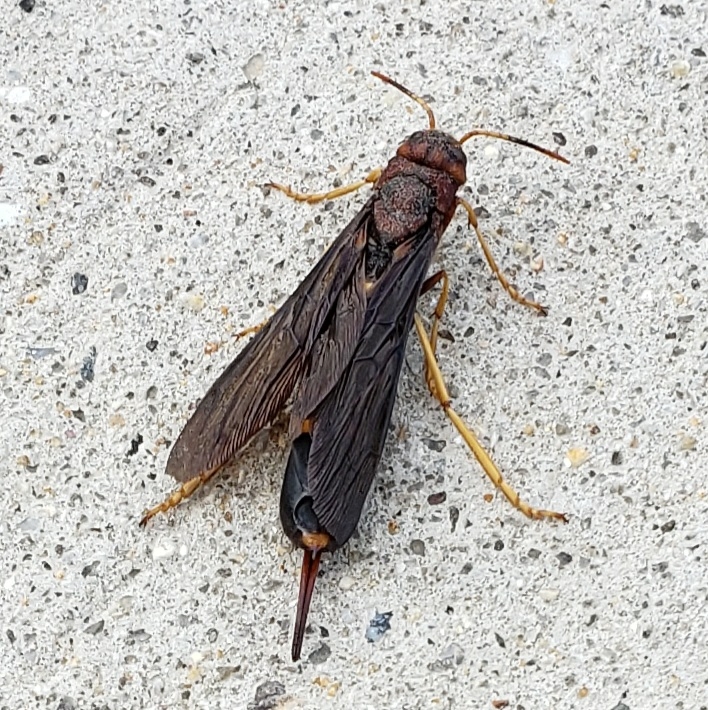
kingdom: Animalia
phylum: Arthropoda
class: Insecta
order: Hymenoptera
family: Siricidae
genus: Tremex
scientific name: Tremex columba
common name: Wasp
